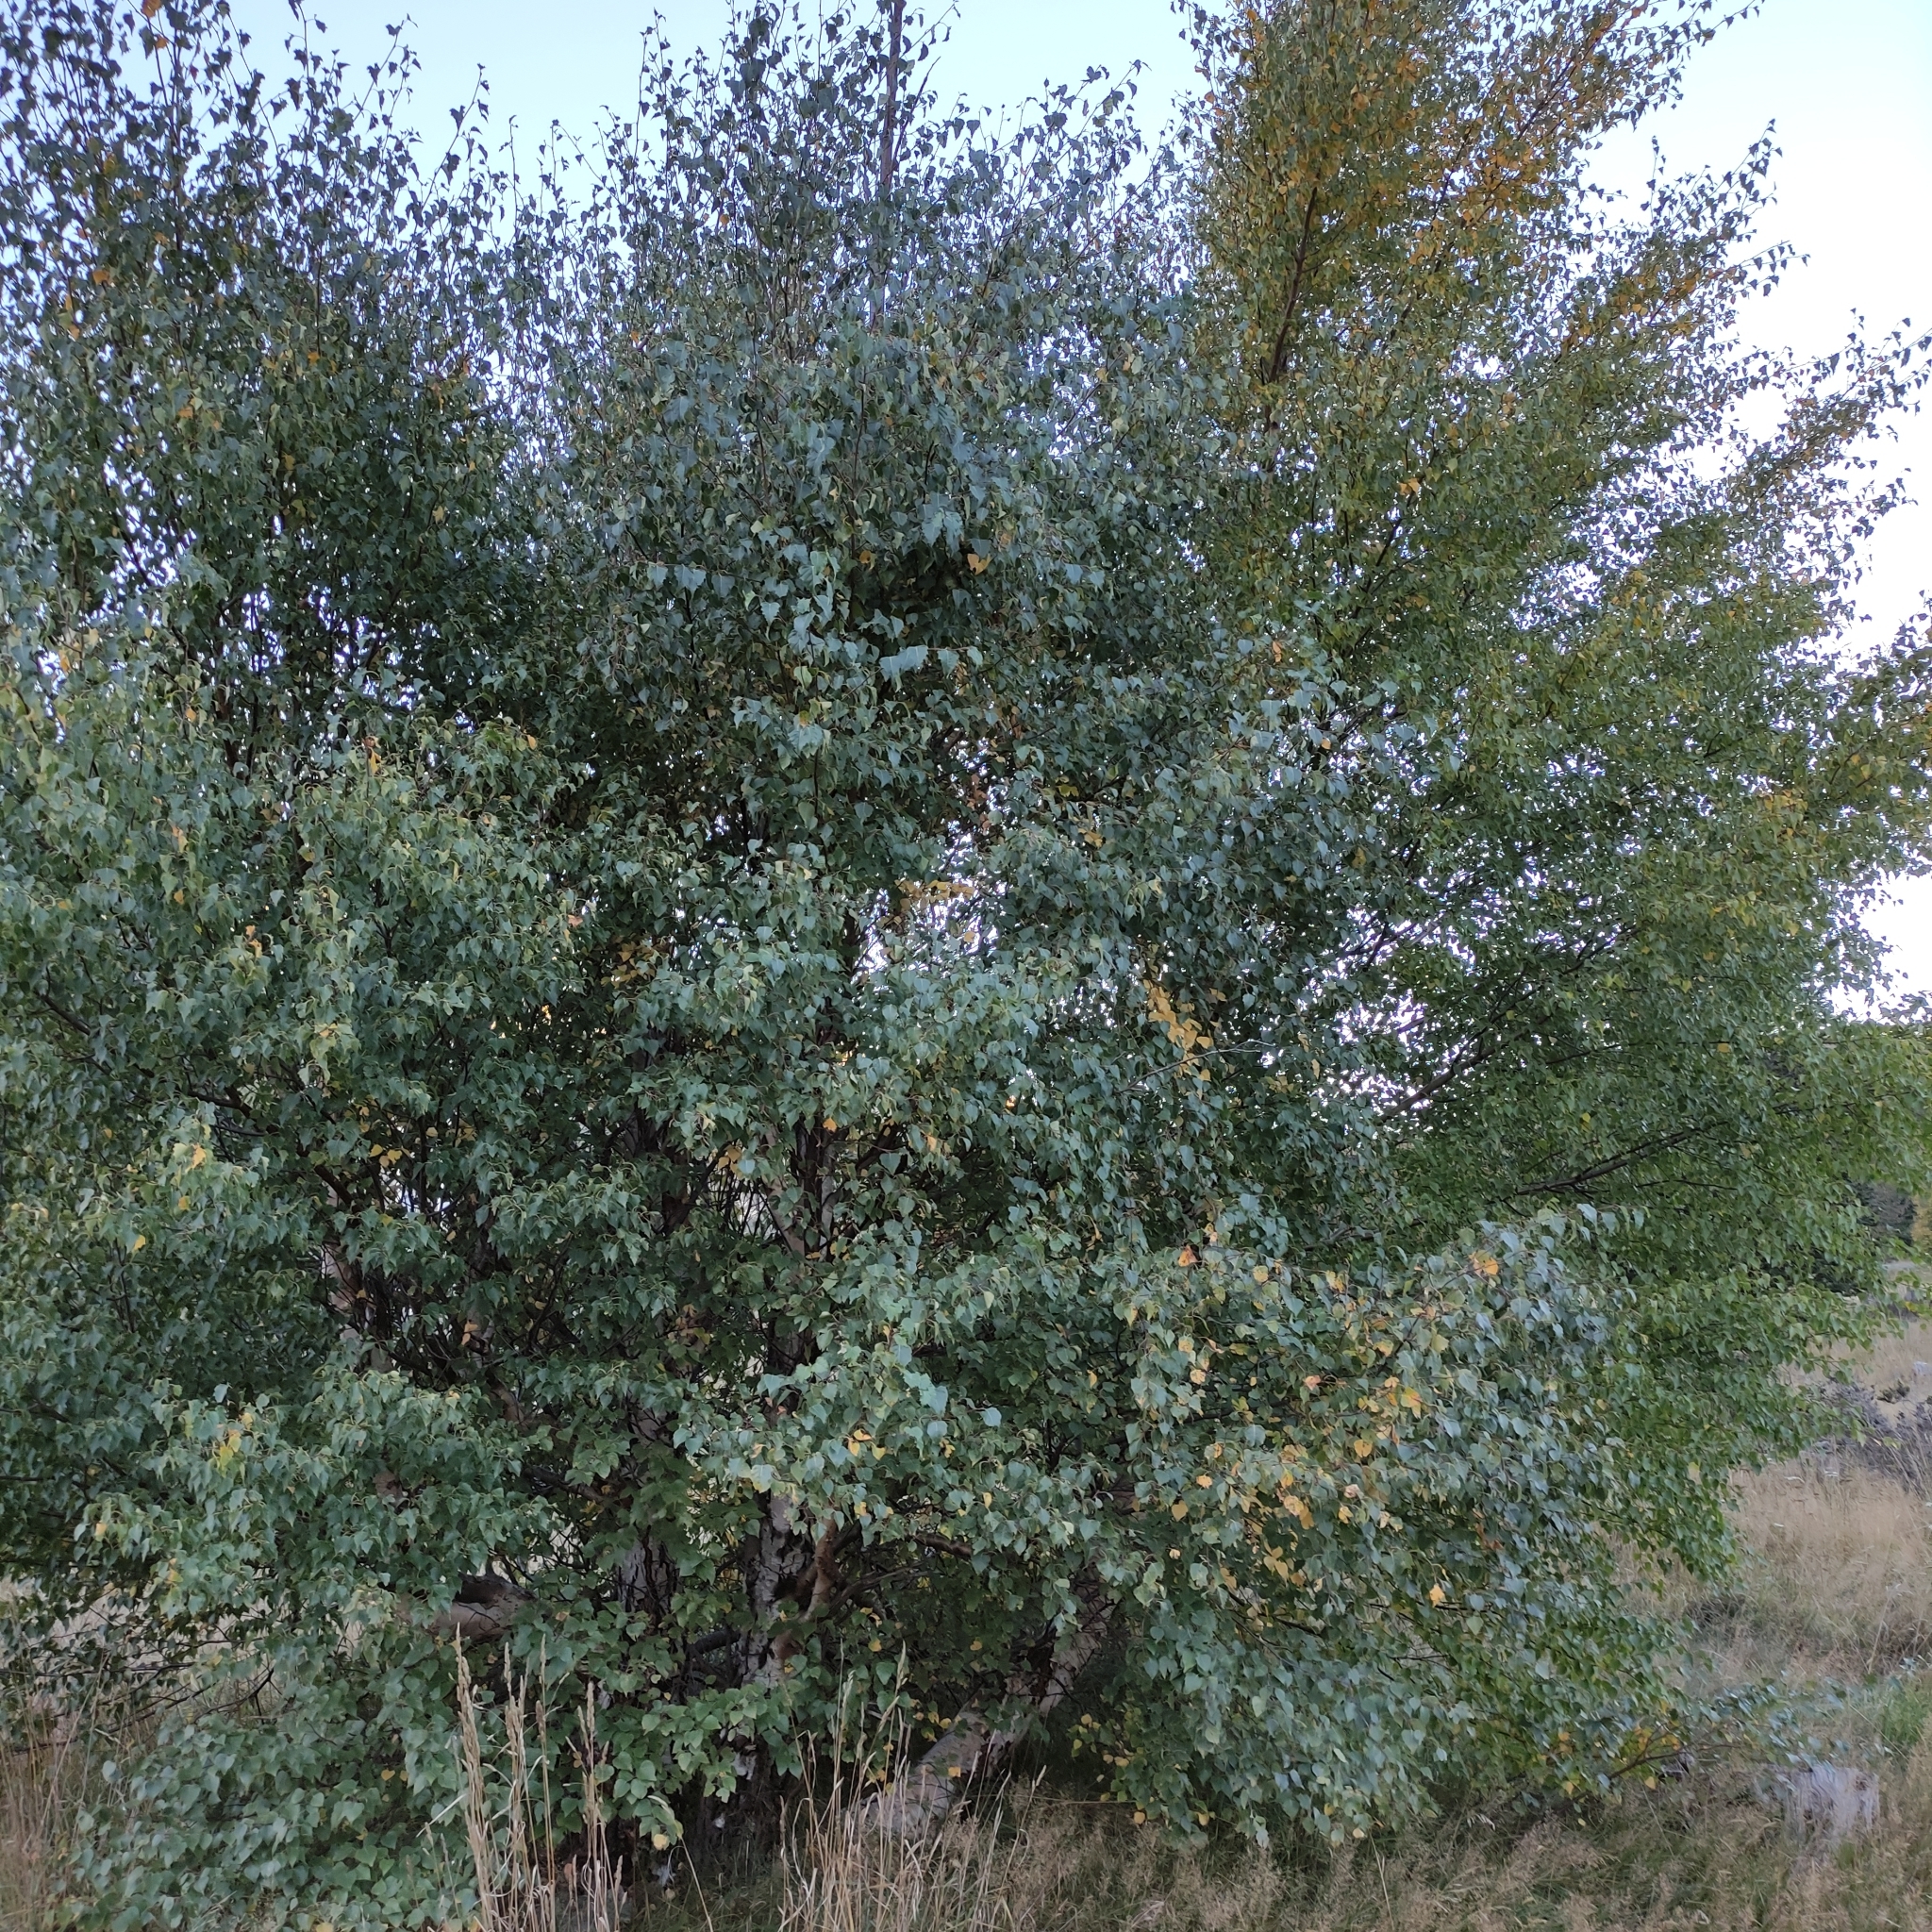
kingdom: Plantae
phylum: Tracheophyta
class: Magnoliopsida
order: Fagales
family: Betulaceae
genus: Betula
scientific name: Betula pendula
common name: Silver birch
